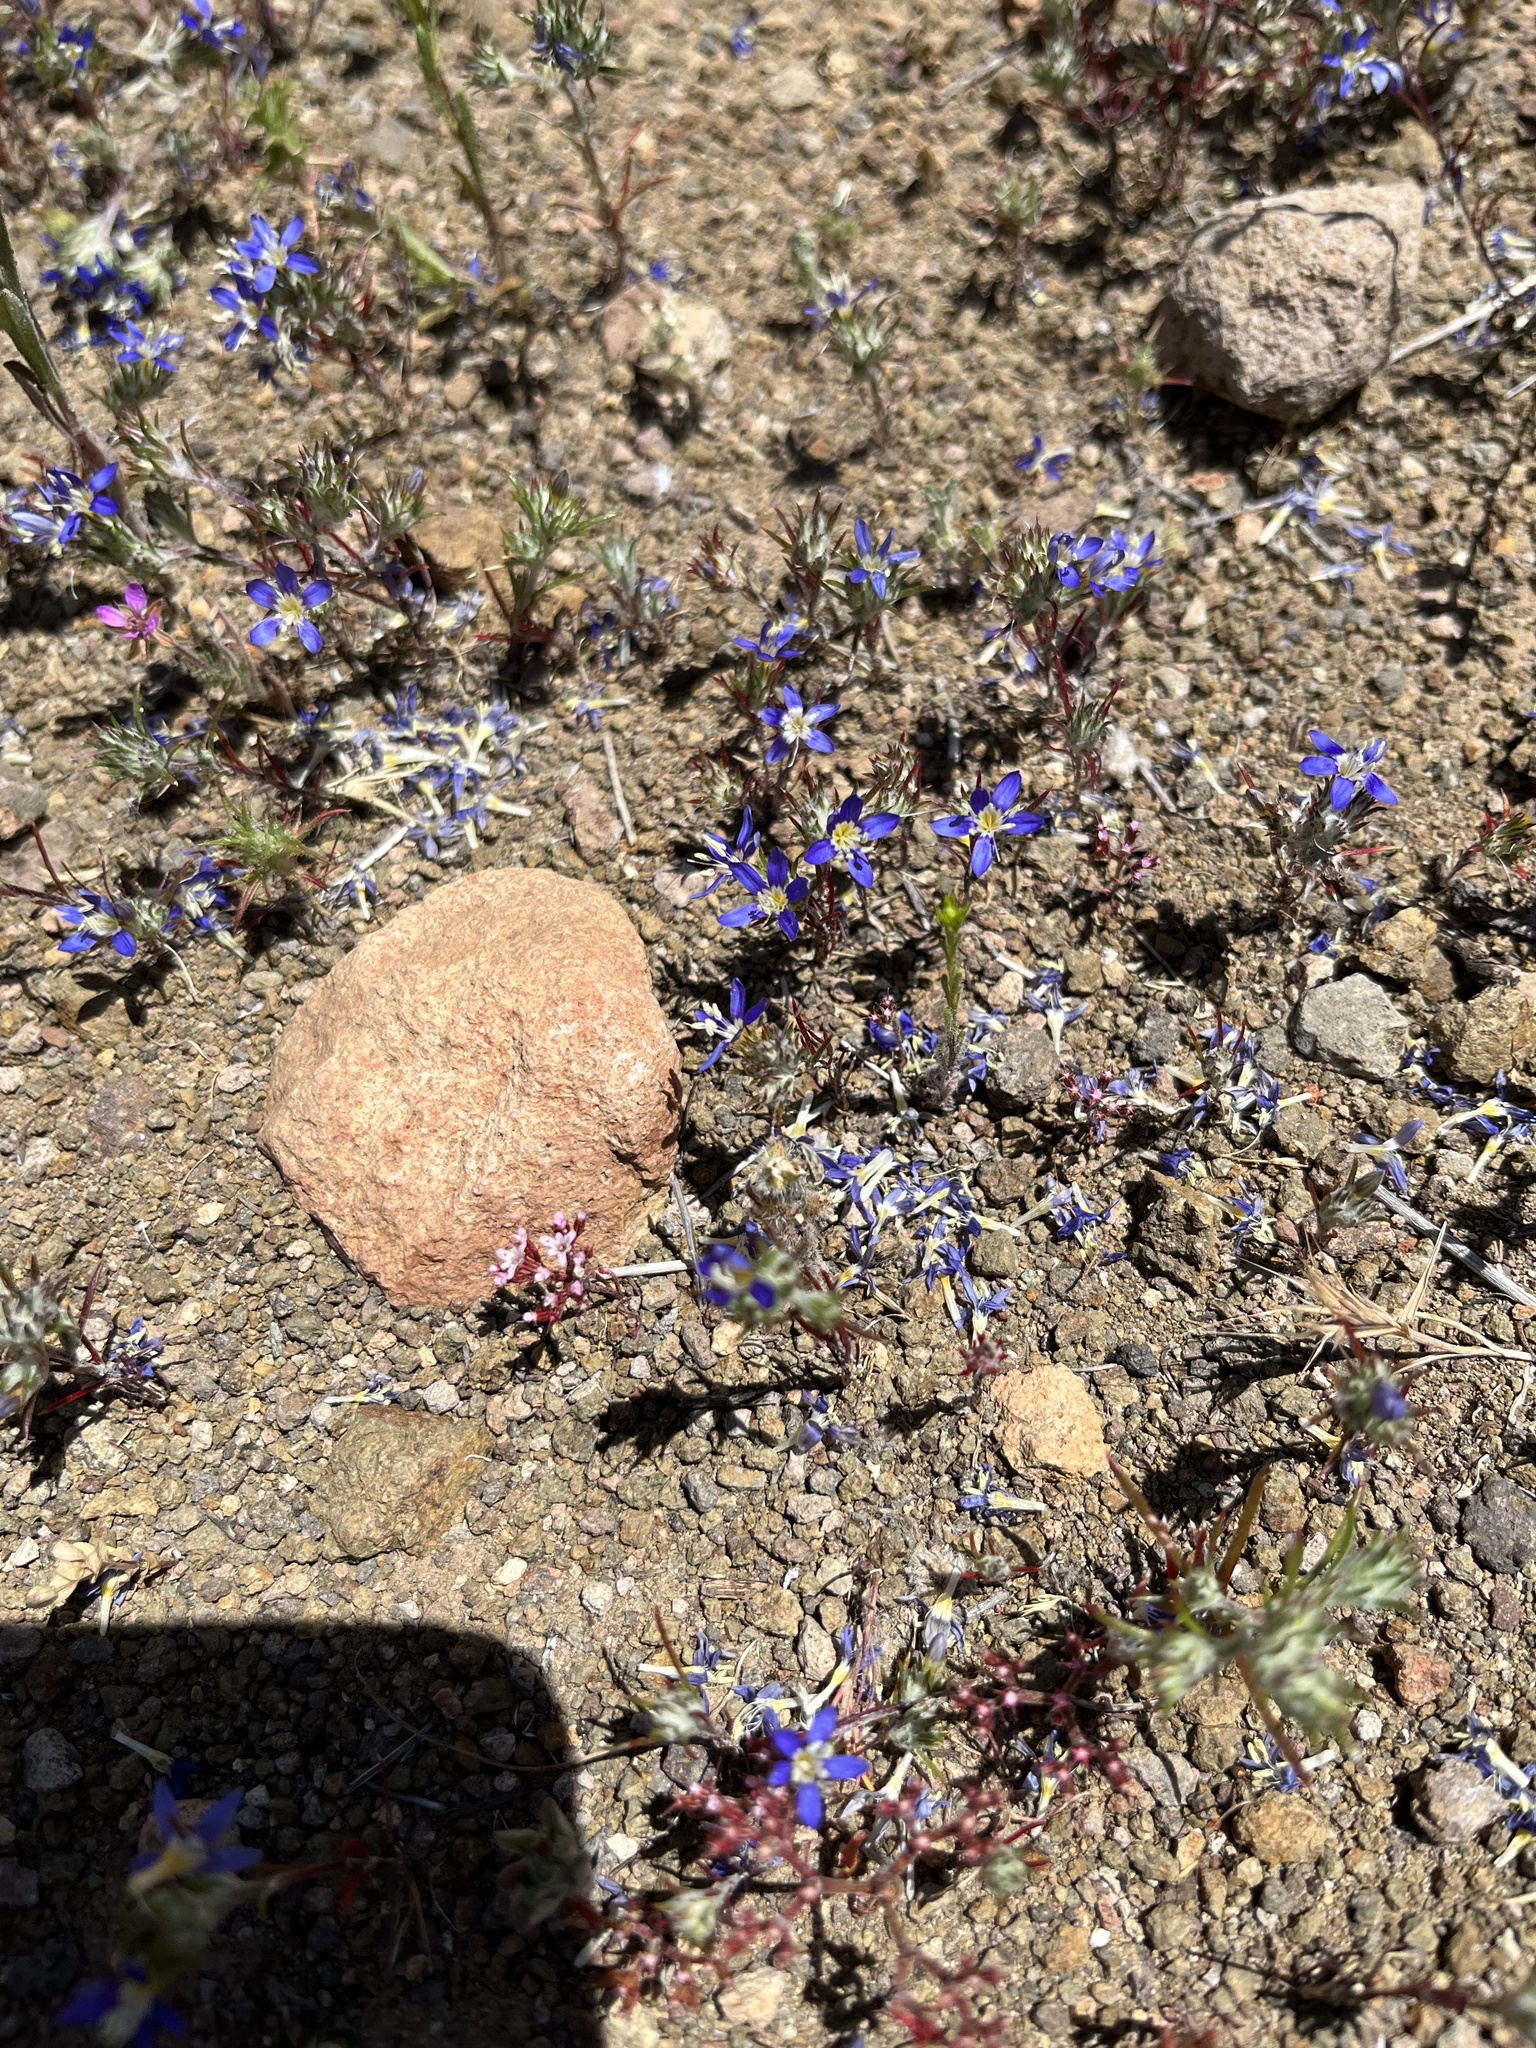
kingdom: Plantae
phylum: Tracheophyta
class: Magnoliopsida
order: Ericales
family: Polemoniaceae
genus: Eriastrum
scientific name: Eriastrum sapphirinum
